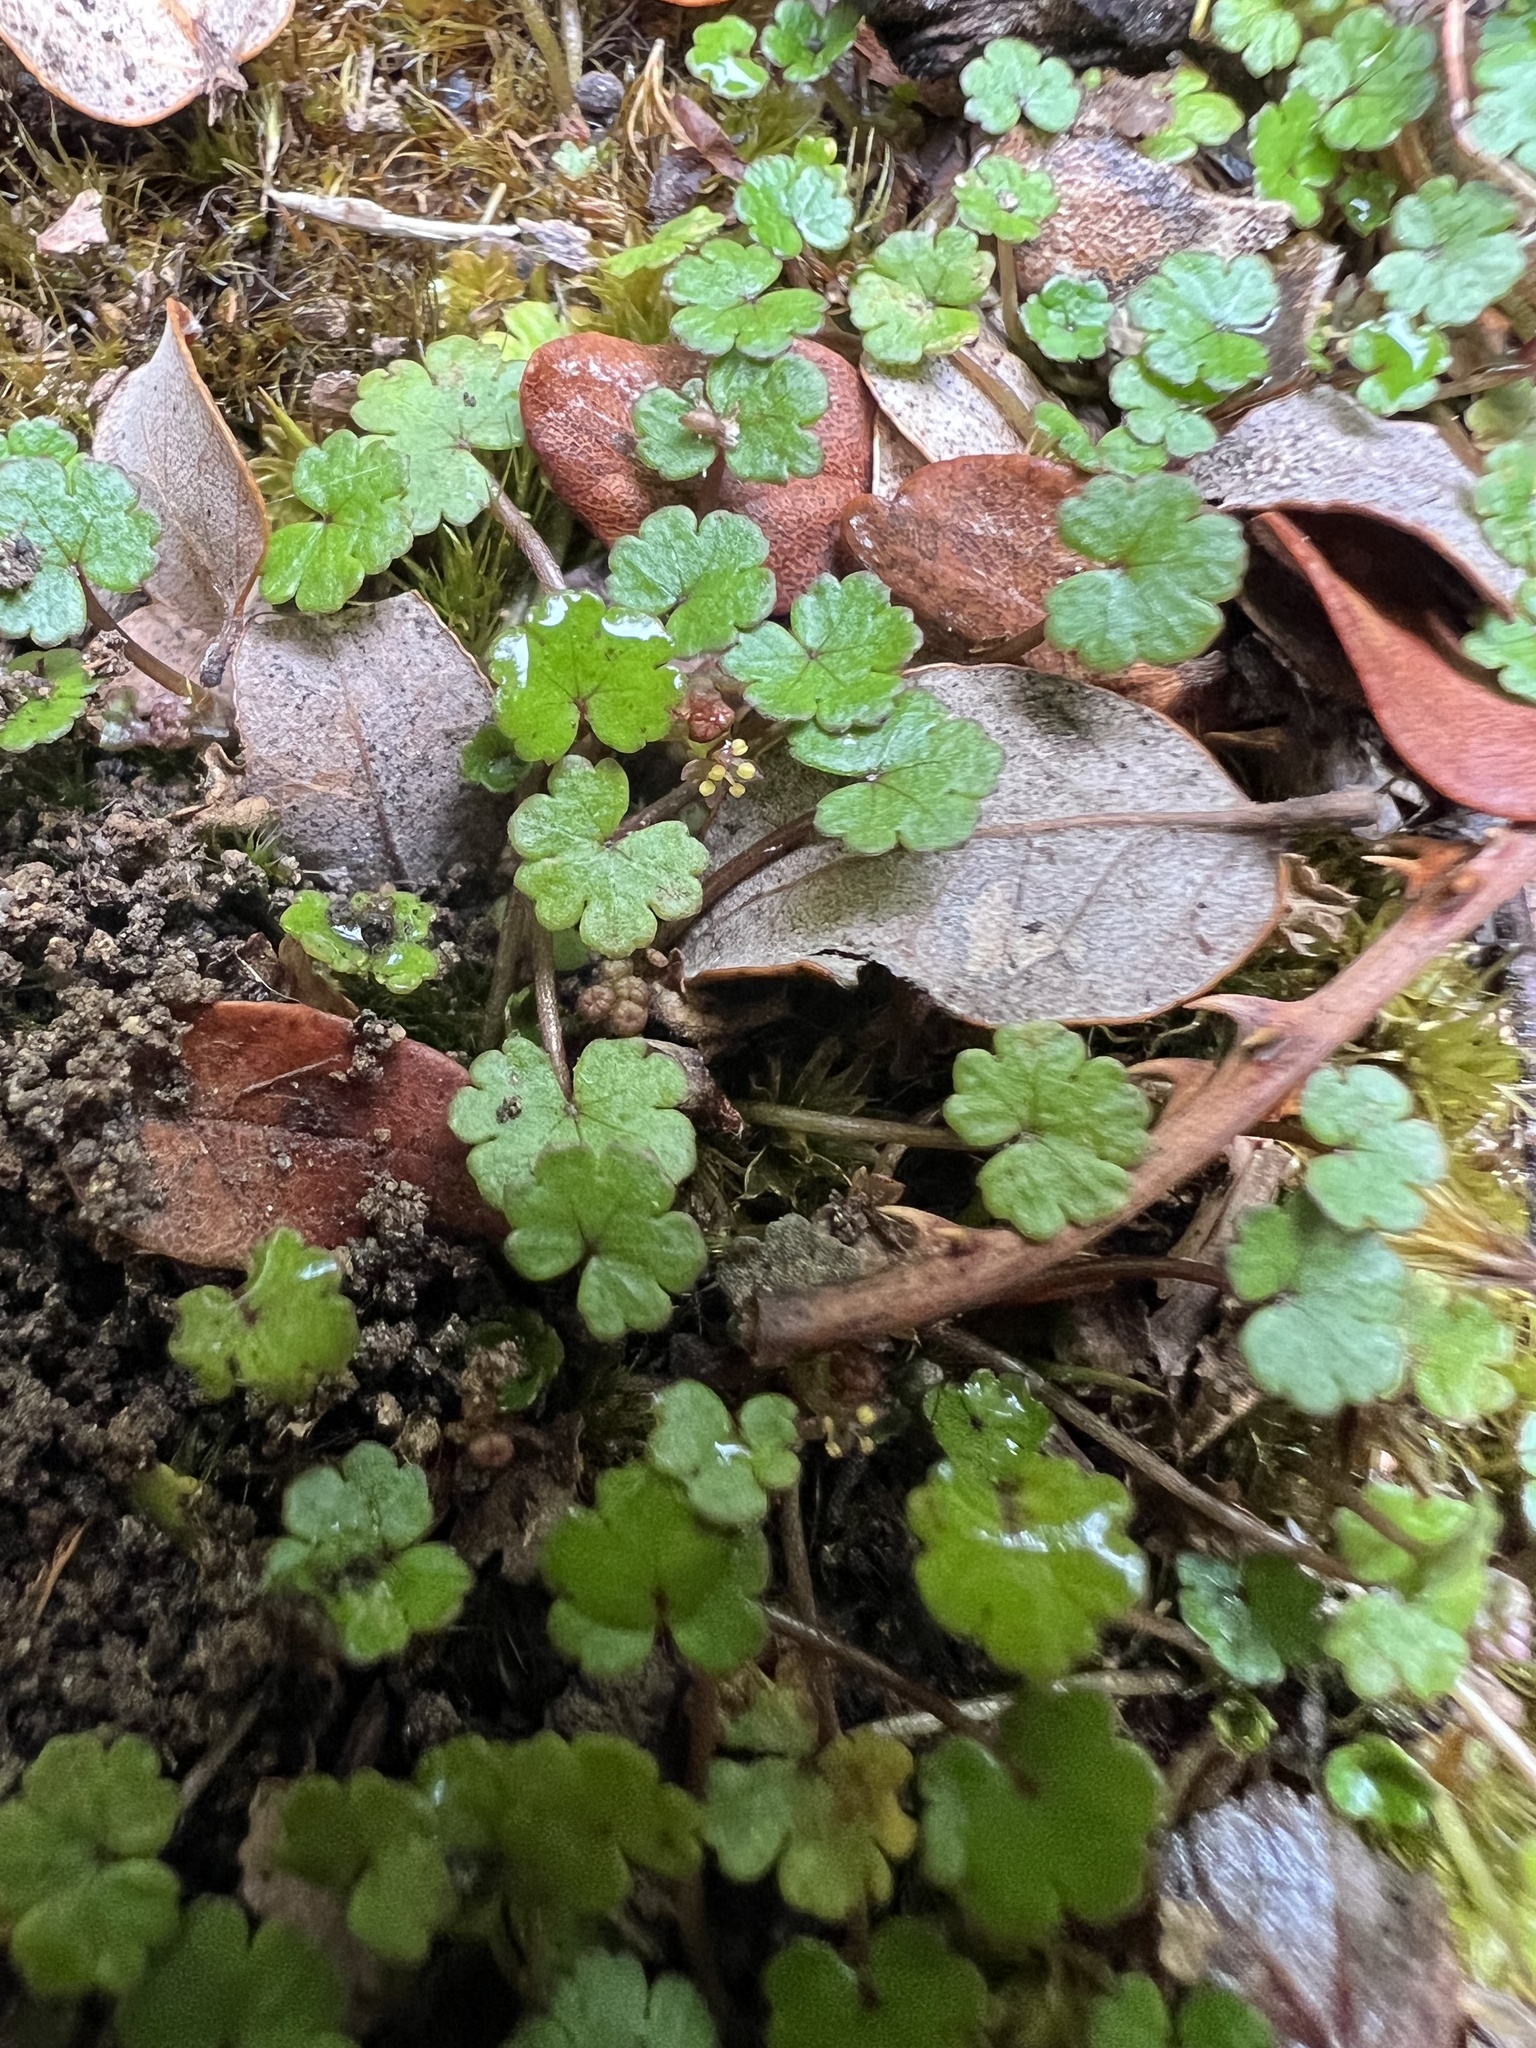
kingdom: Plantae
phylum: Tracheophyta
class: Magnoliopsida
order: Apiales
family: Araliaceae
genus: Hydrocotyle
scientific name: Hydrocotyle microphylla
